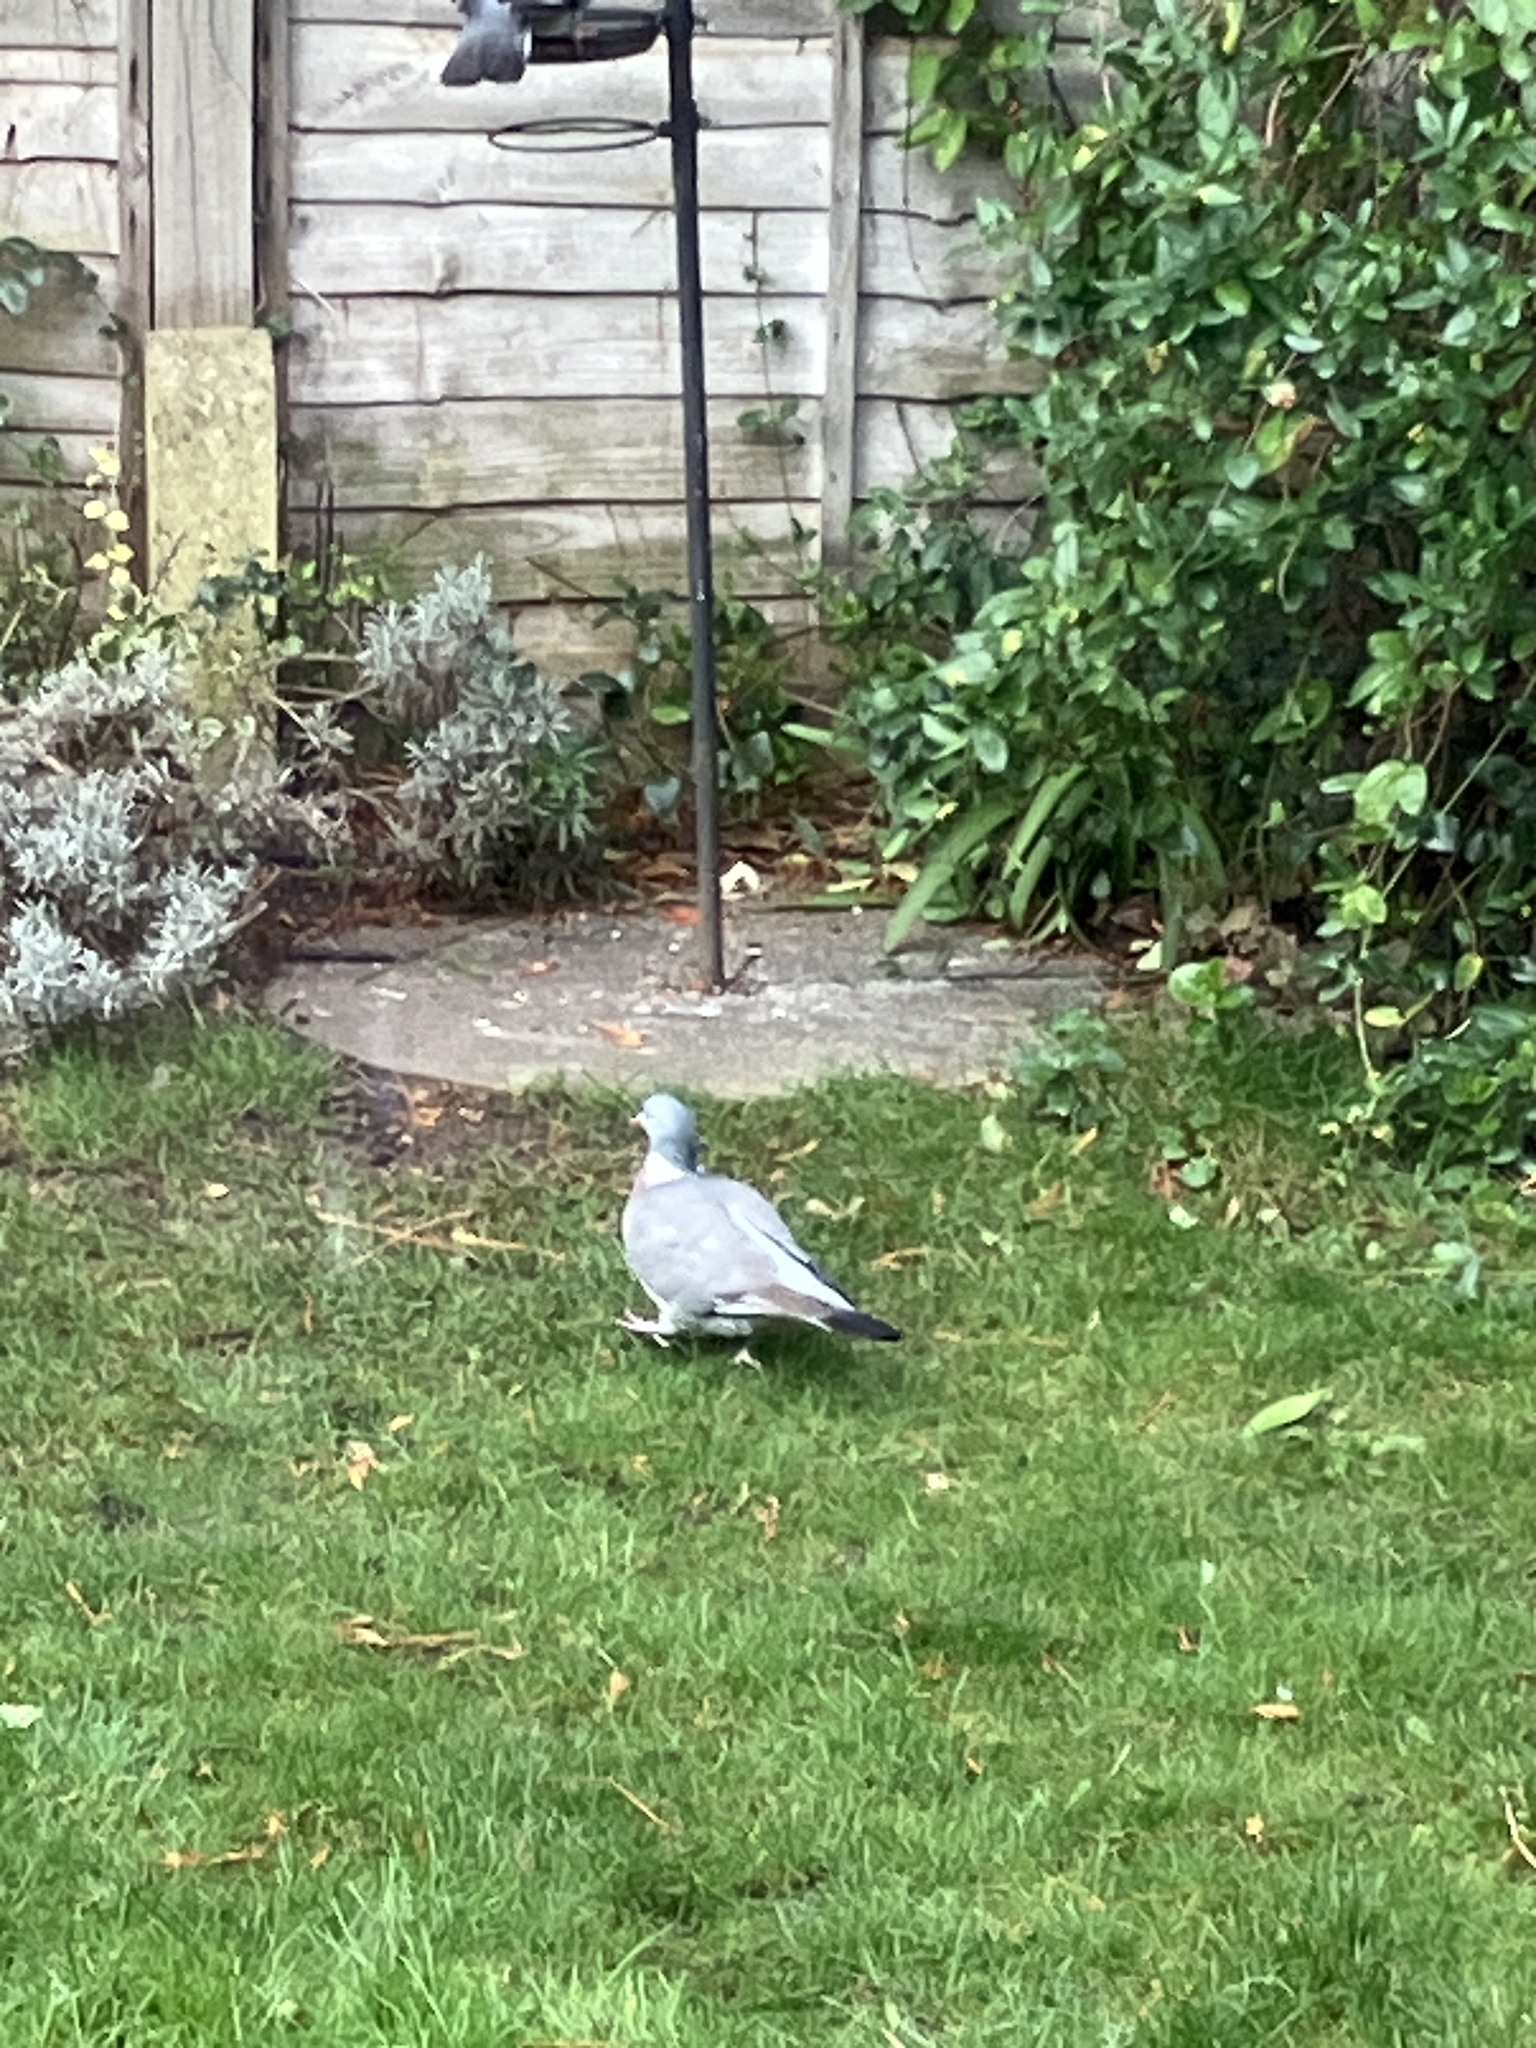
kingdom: Animalia
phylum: Chordata
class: Aves
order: Columbiformes
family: Columbidae
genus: Columba
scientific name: Columba palumbus
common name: Common wood pigeon
